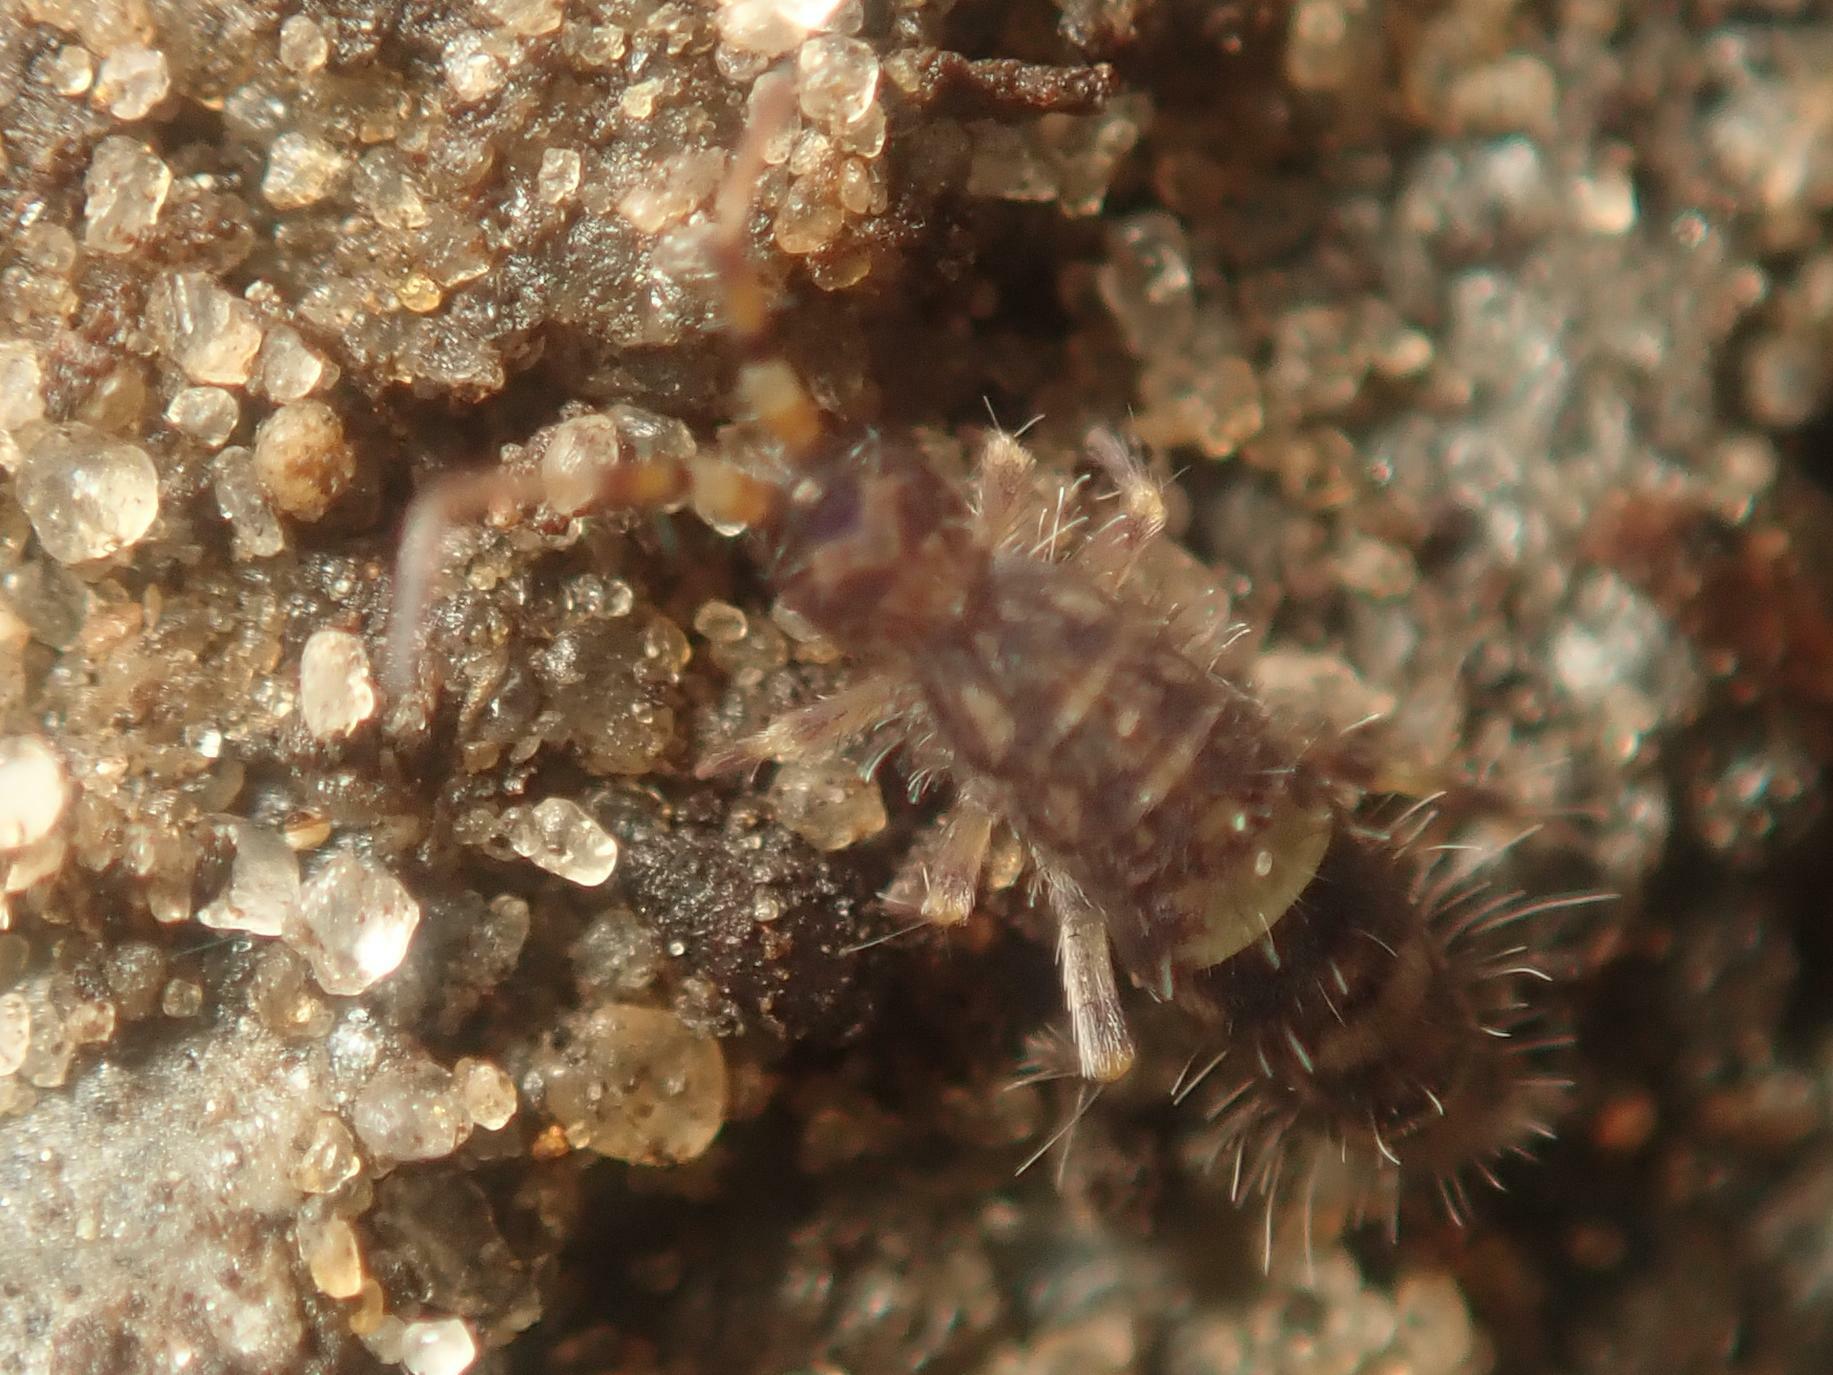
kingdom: Animalia
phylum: Arthropoda
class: Collembola
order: Entomobryomorpha
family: Orchesellidae
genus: Orchesella
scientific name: Orchesella cincta
